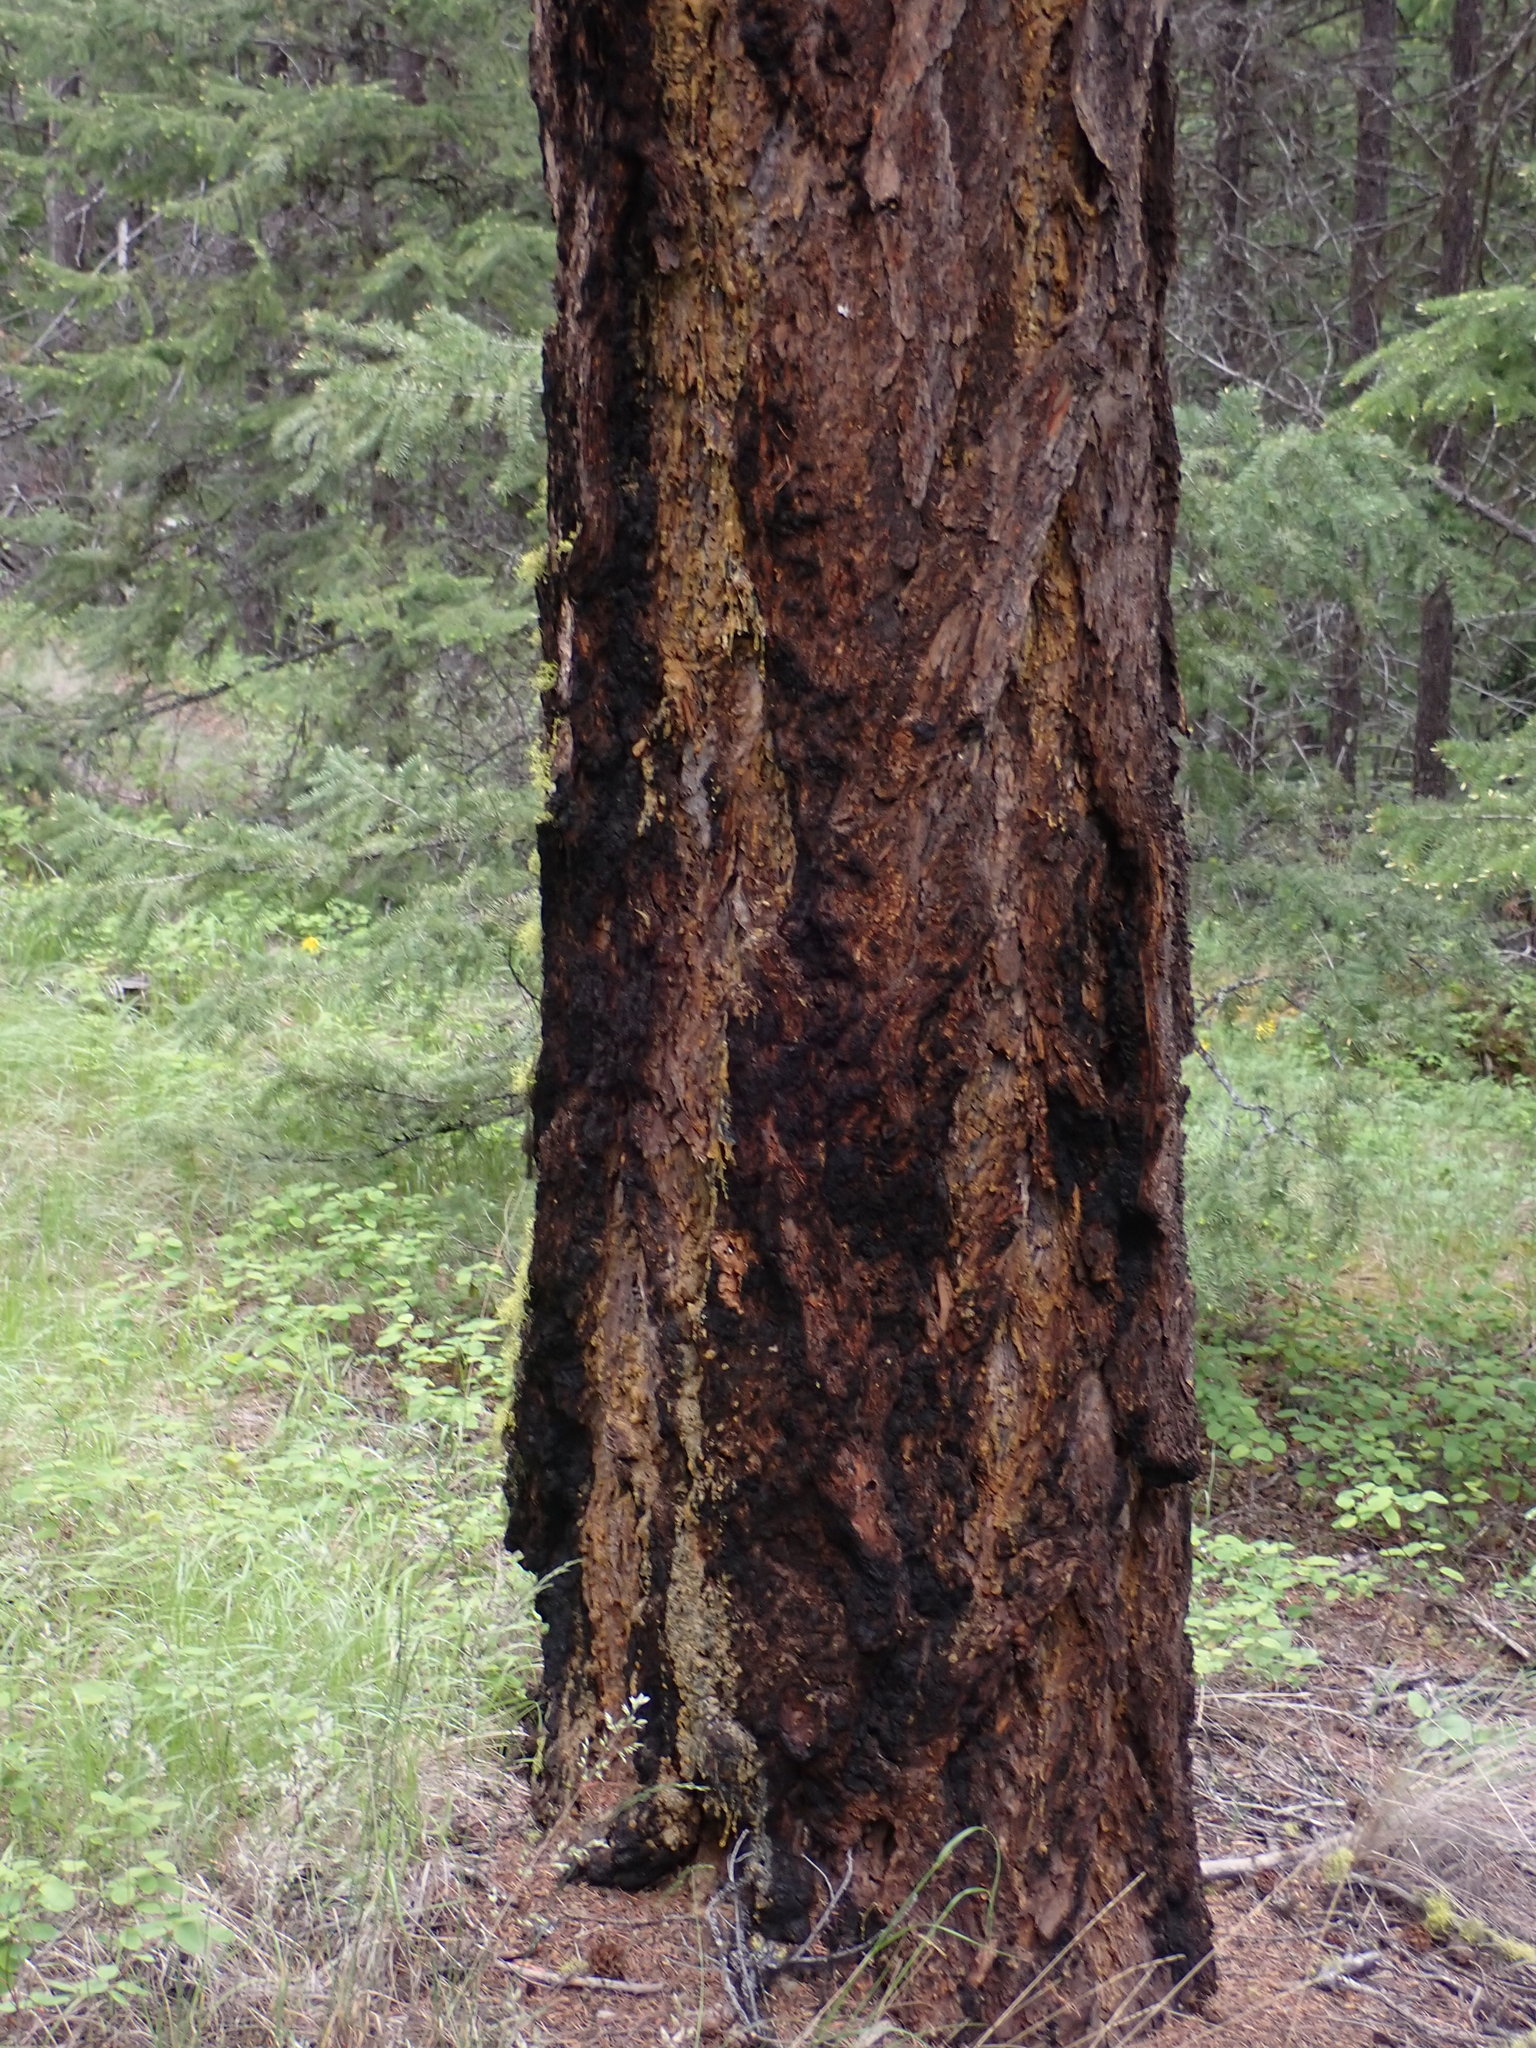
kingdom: Plantae
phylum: Tracheophyta
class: Pinopsida
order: Pinales
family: Pinaceae
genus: Pseudotsuga
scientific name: Pseudotsuga menziesii
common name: Douglas fir
